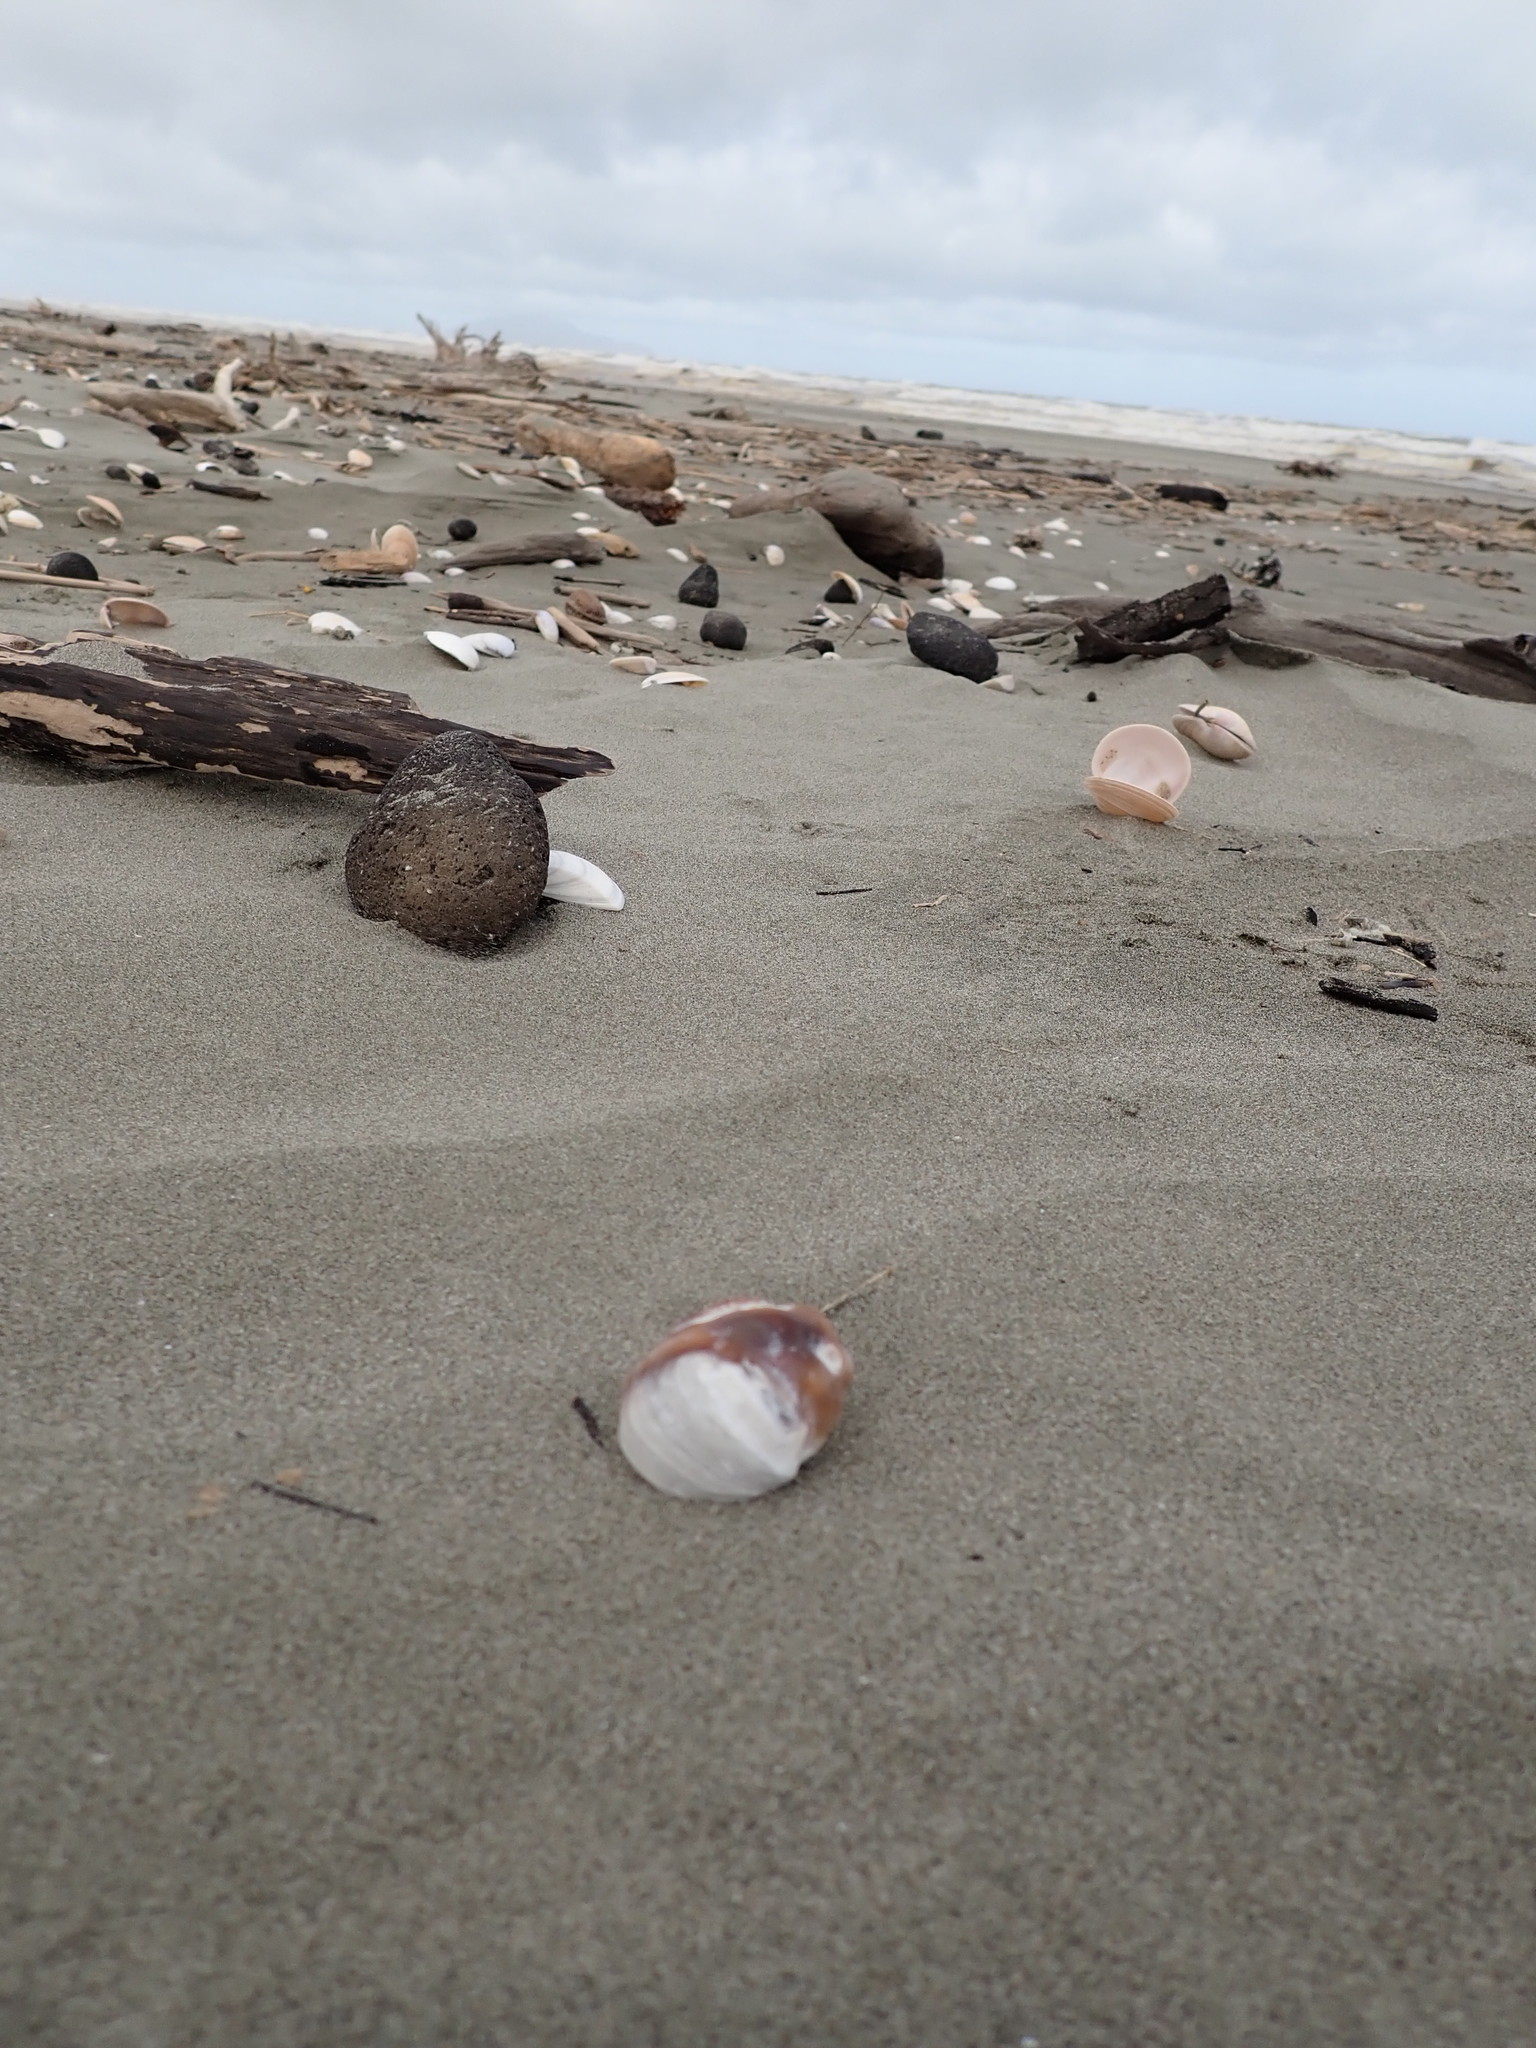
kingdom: Animalia
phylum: Mollusca
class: Gastropoda
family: Amphibolidae
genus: Amphibola
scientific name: Amphibola crenata
